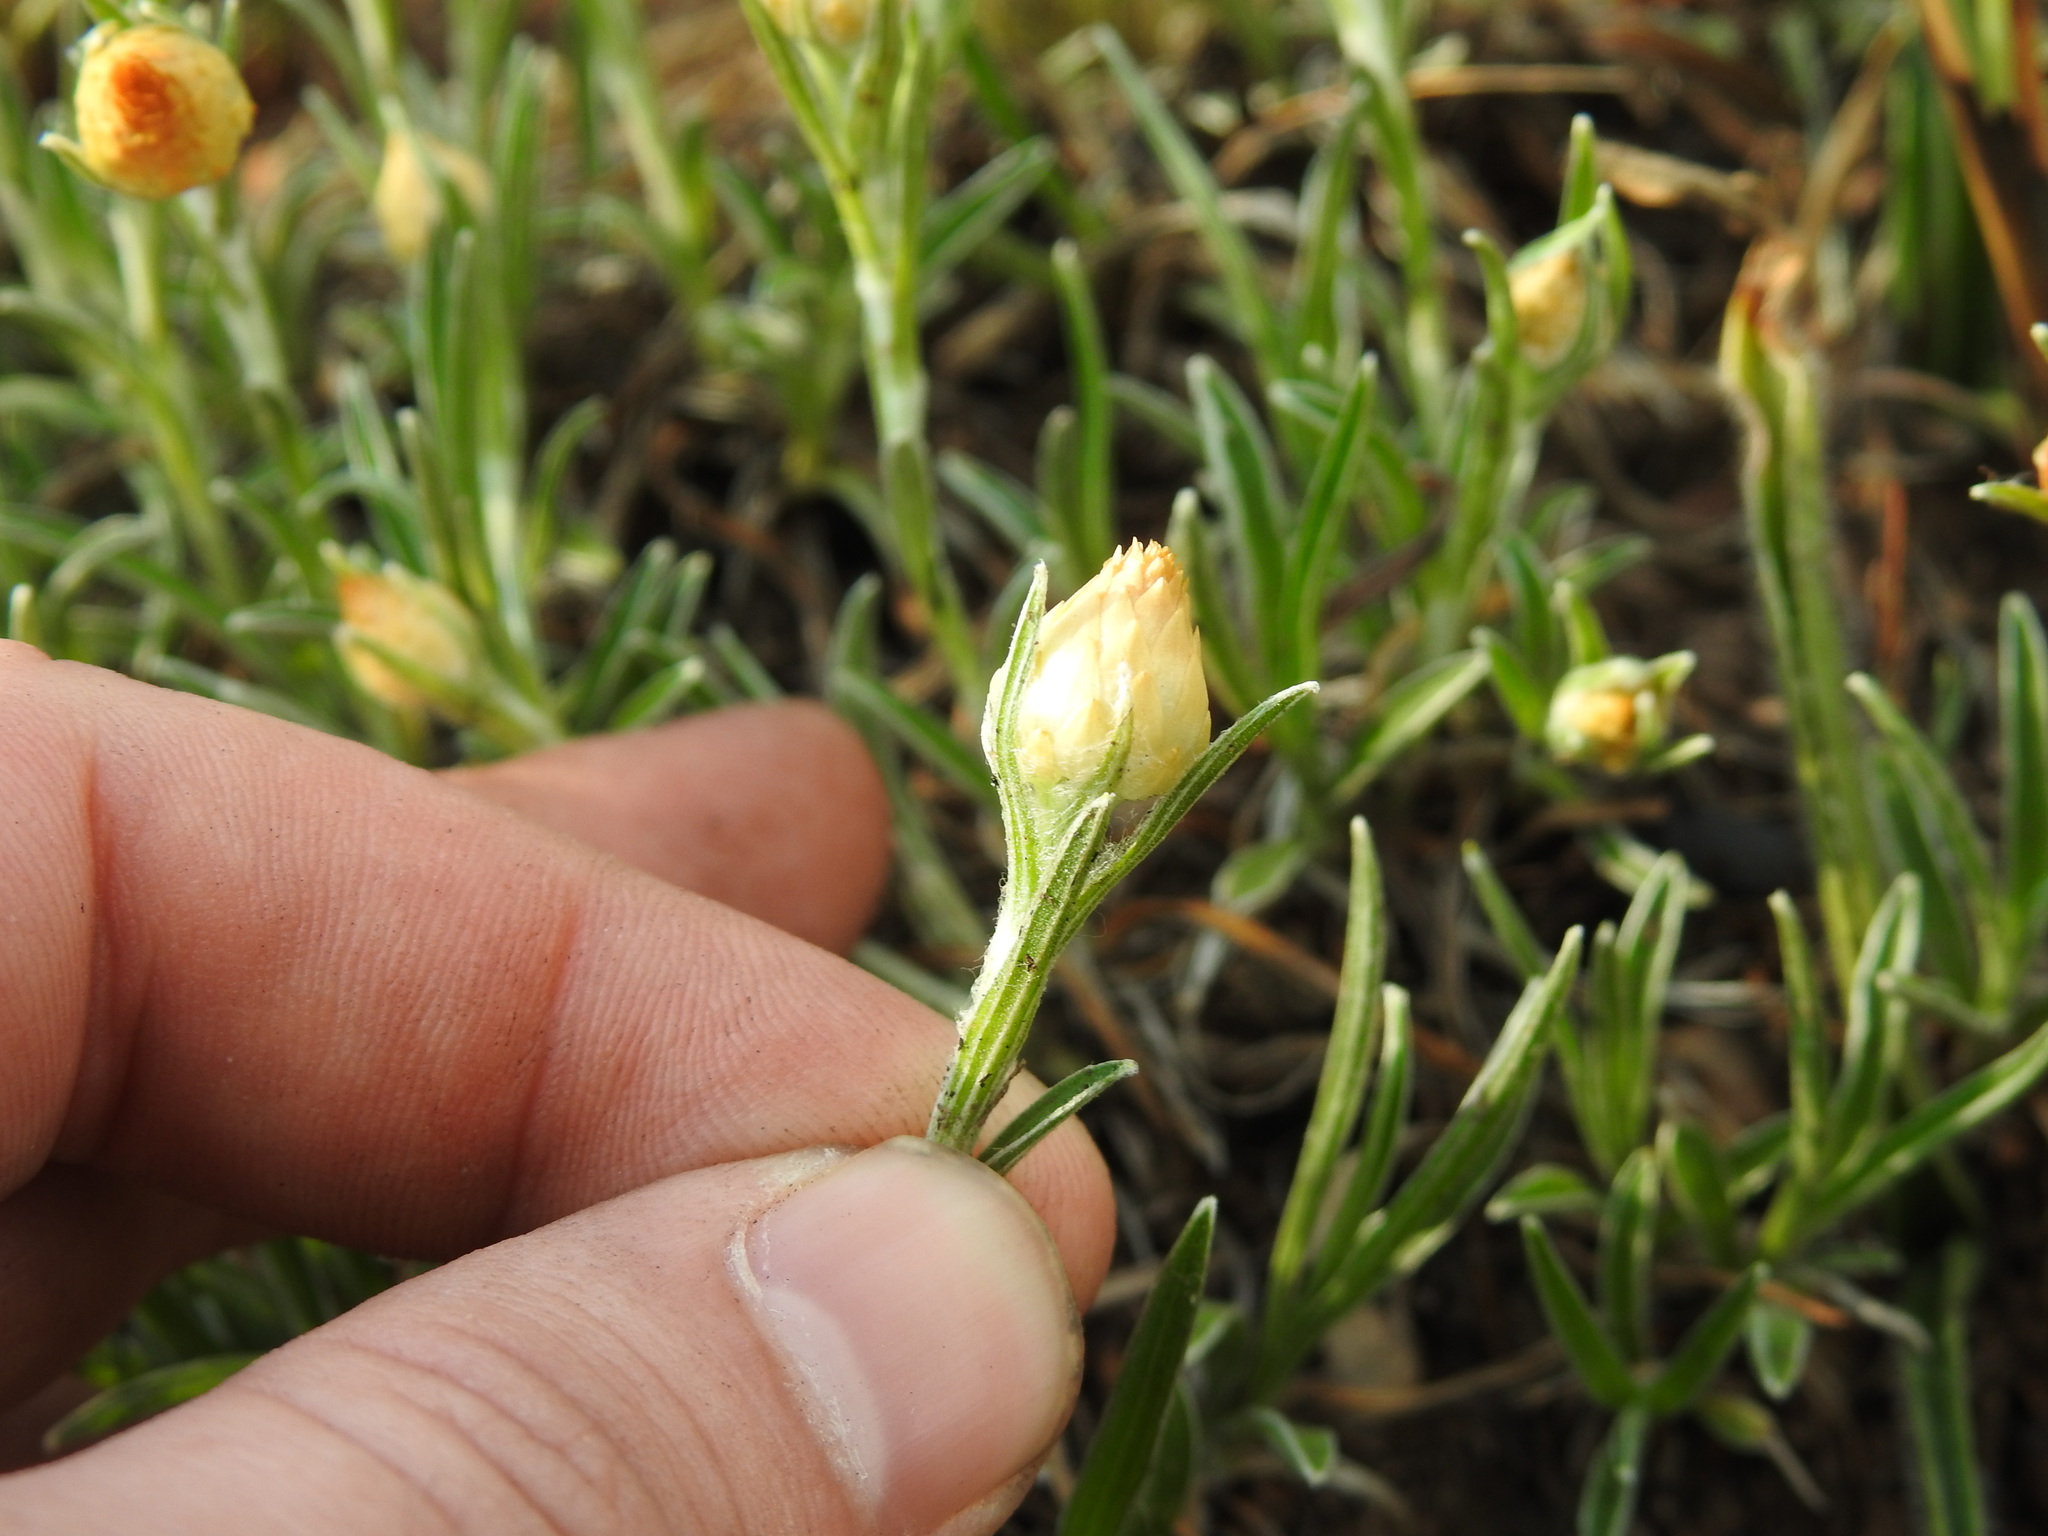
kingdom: Plantae
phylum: Tracheophyta
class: Magnoliopsida
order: Asterales
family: Asteraceae
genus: Helichrysum
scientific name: Helichrysum chionosphaerum
